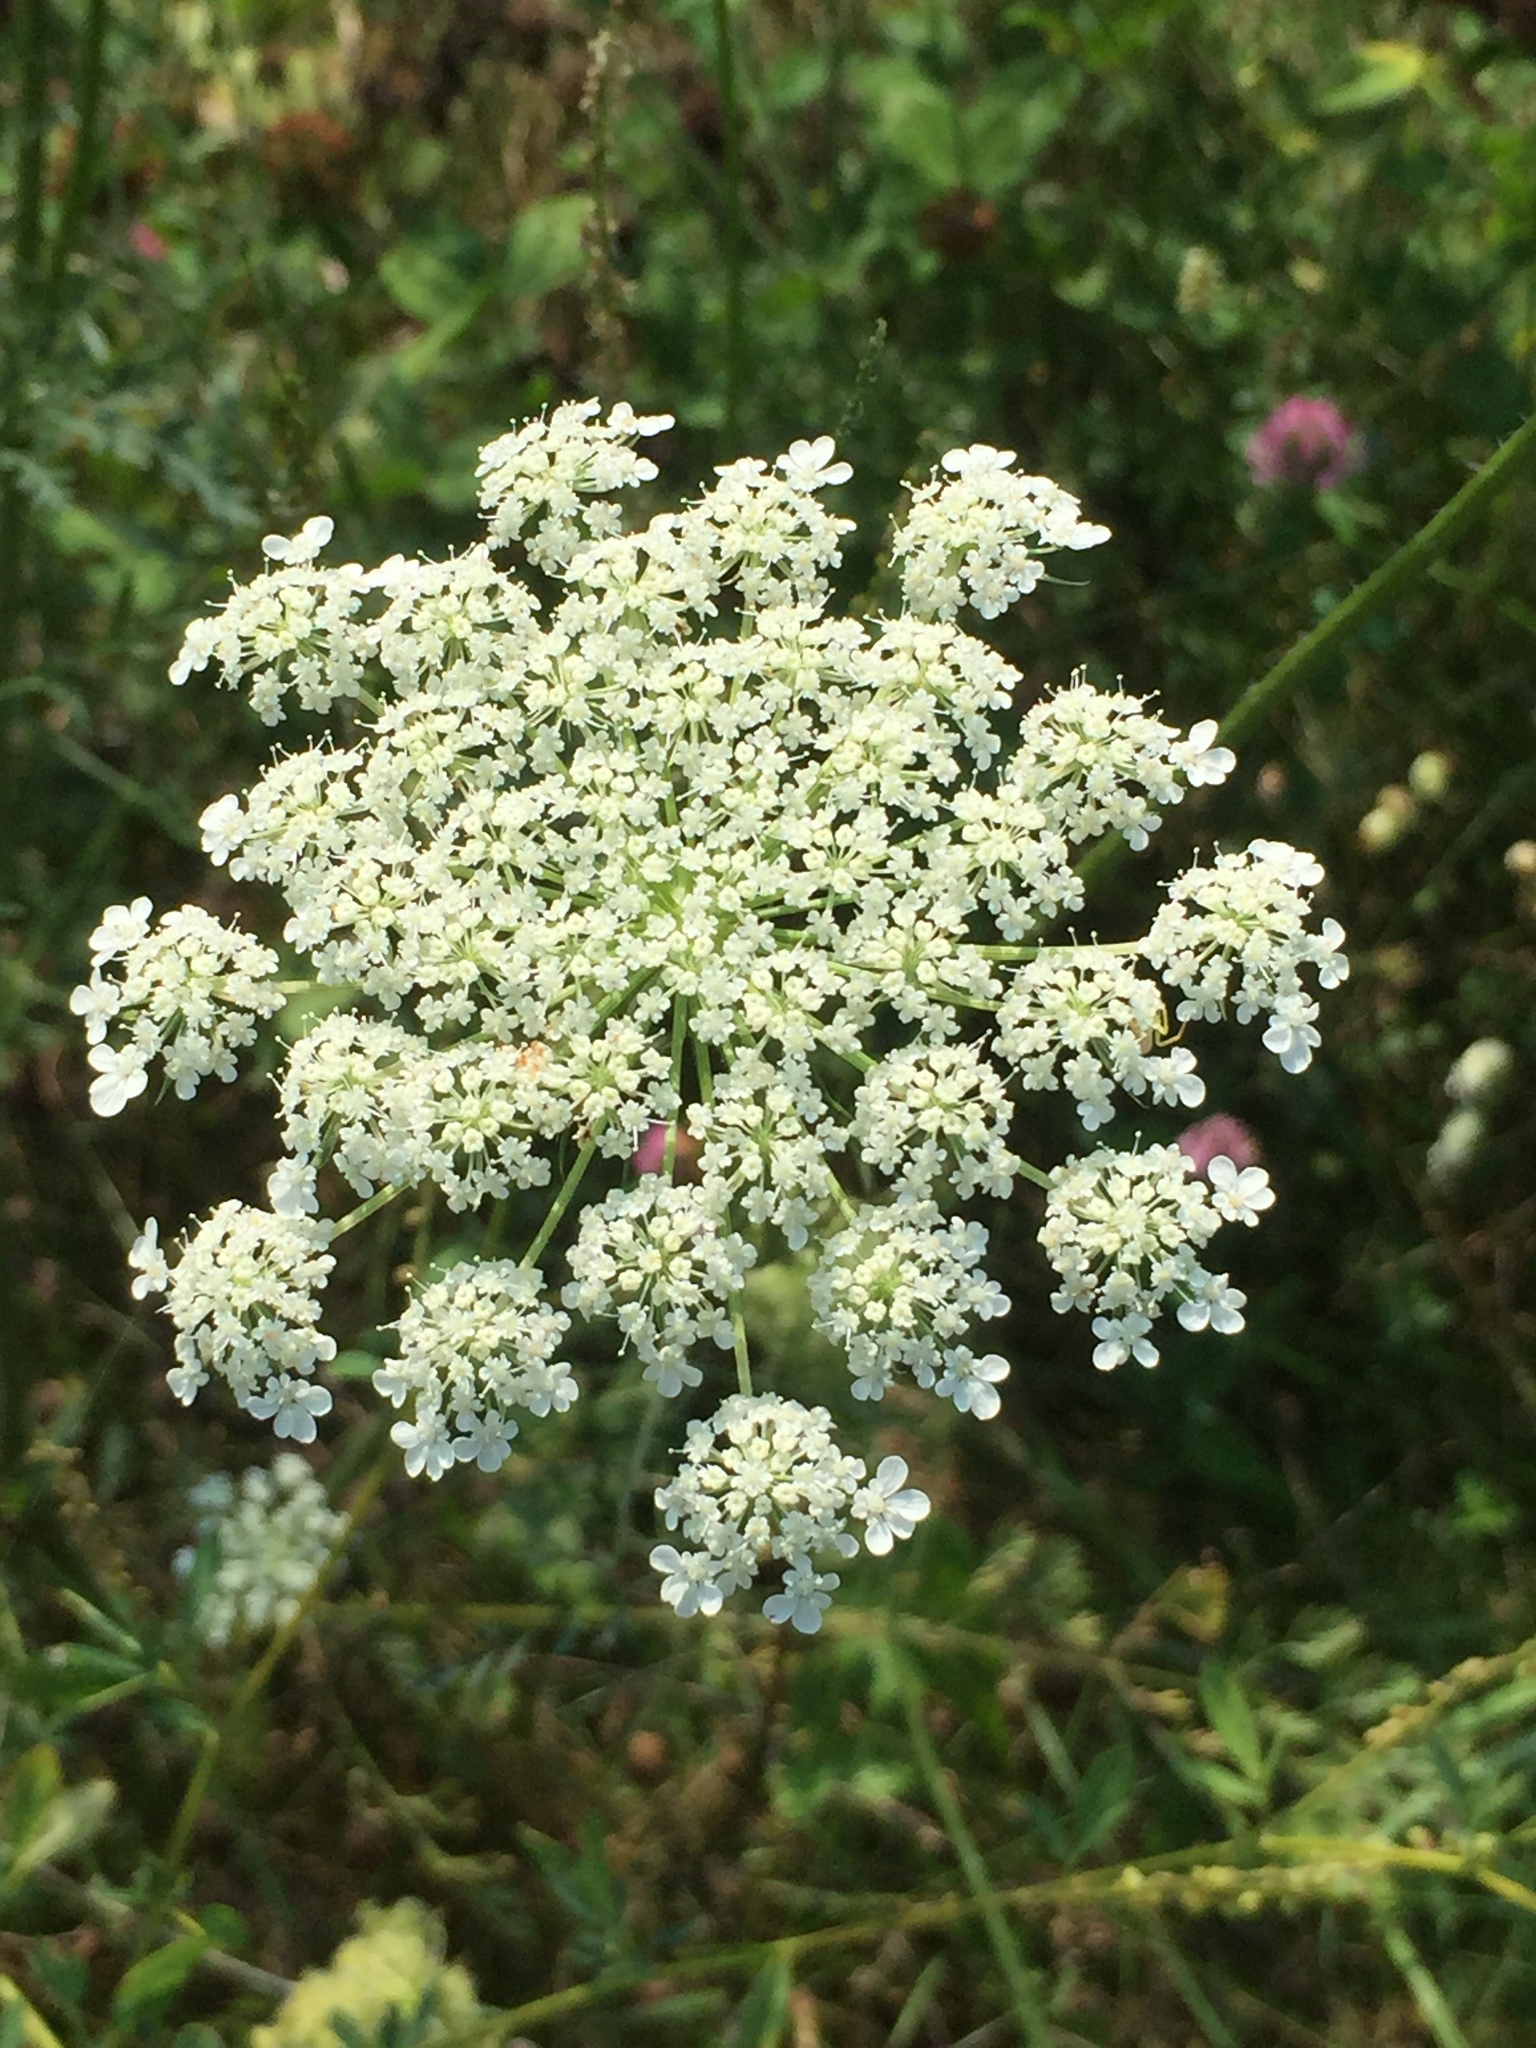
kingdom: Plantae
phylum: Tracheophyta
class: Magnoliopsida
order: Apiales
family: Apiaceae
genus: Daucus
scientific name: Daucus carota
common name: Wild carrot
